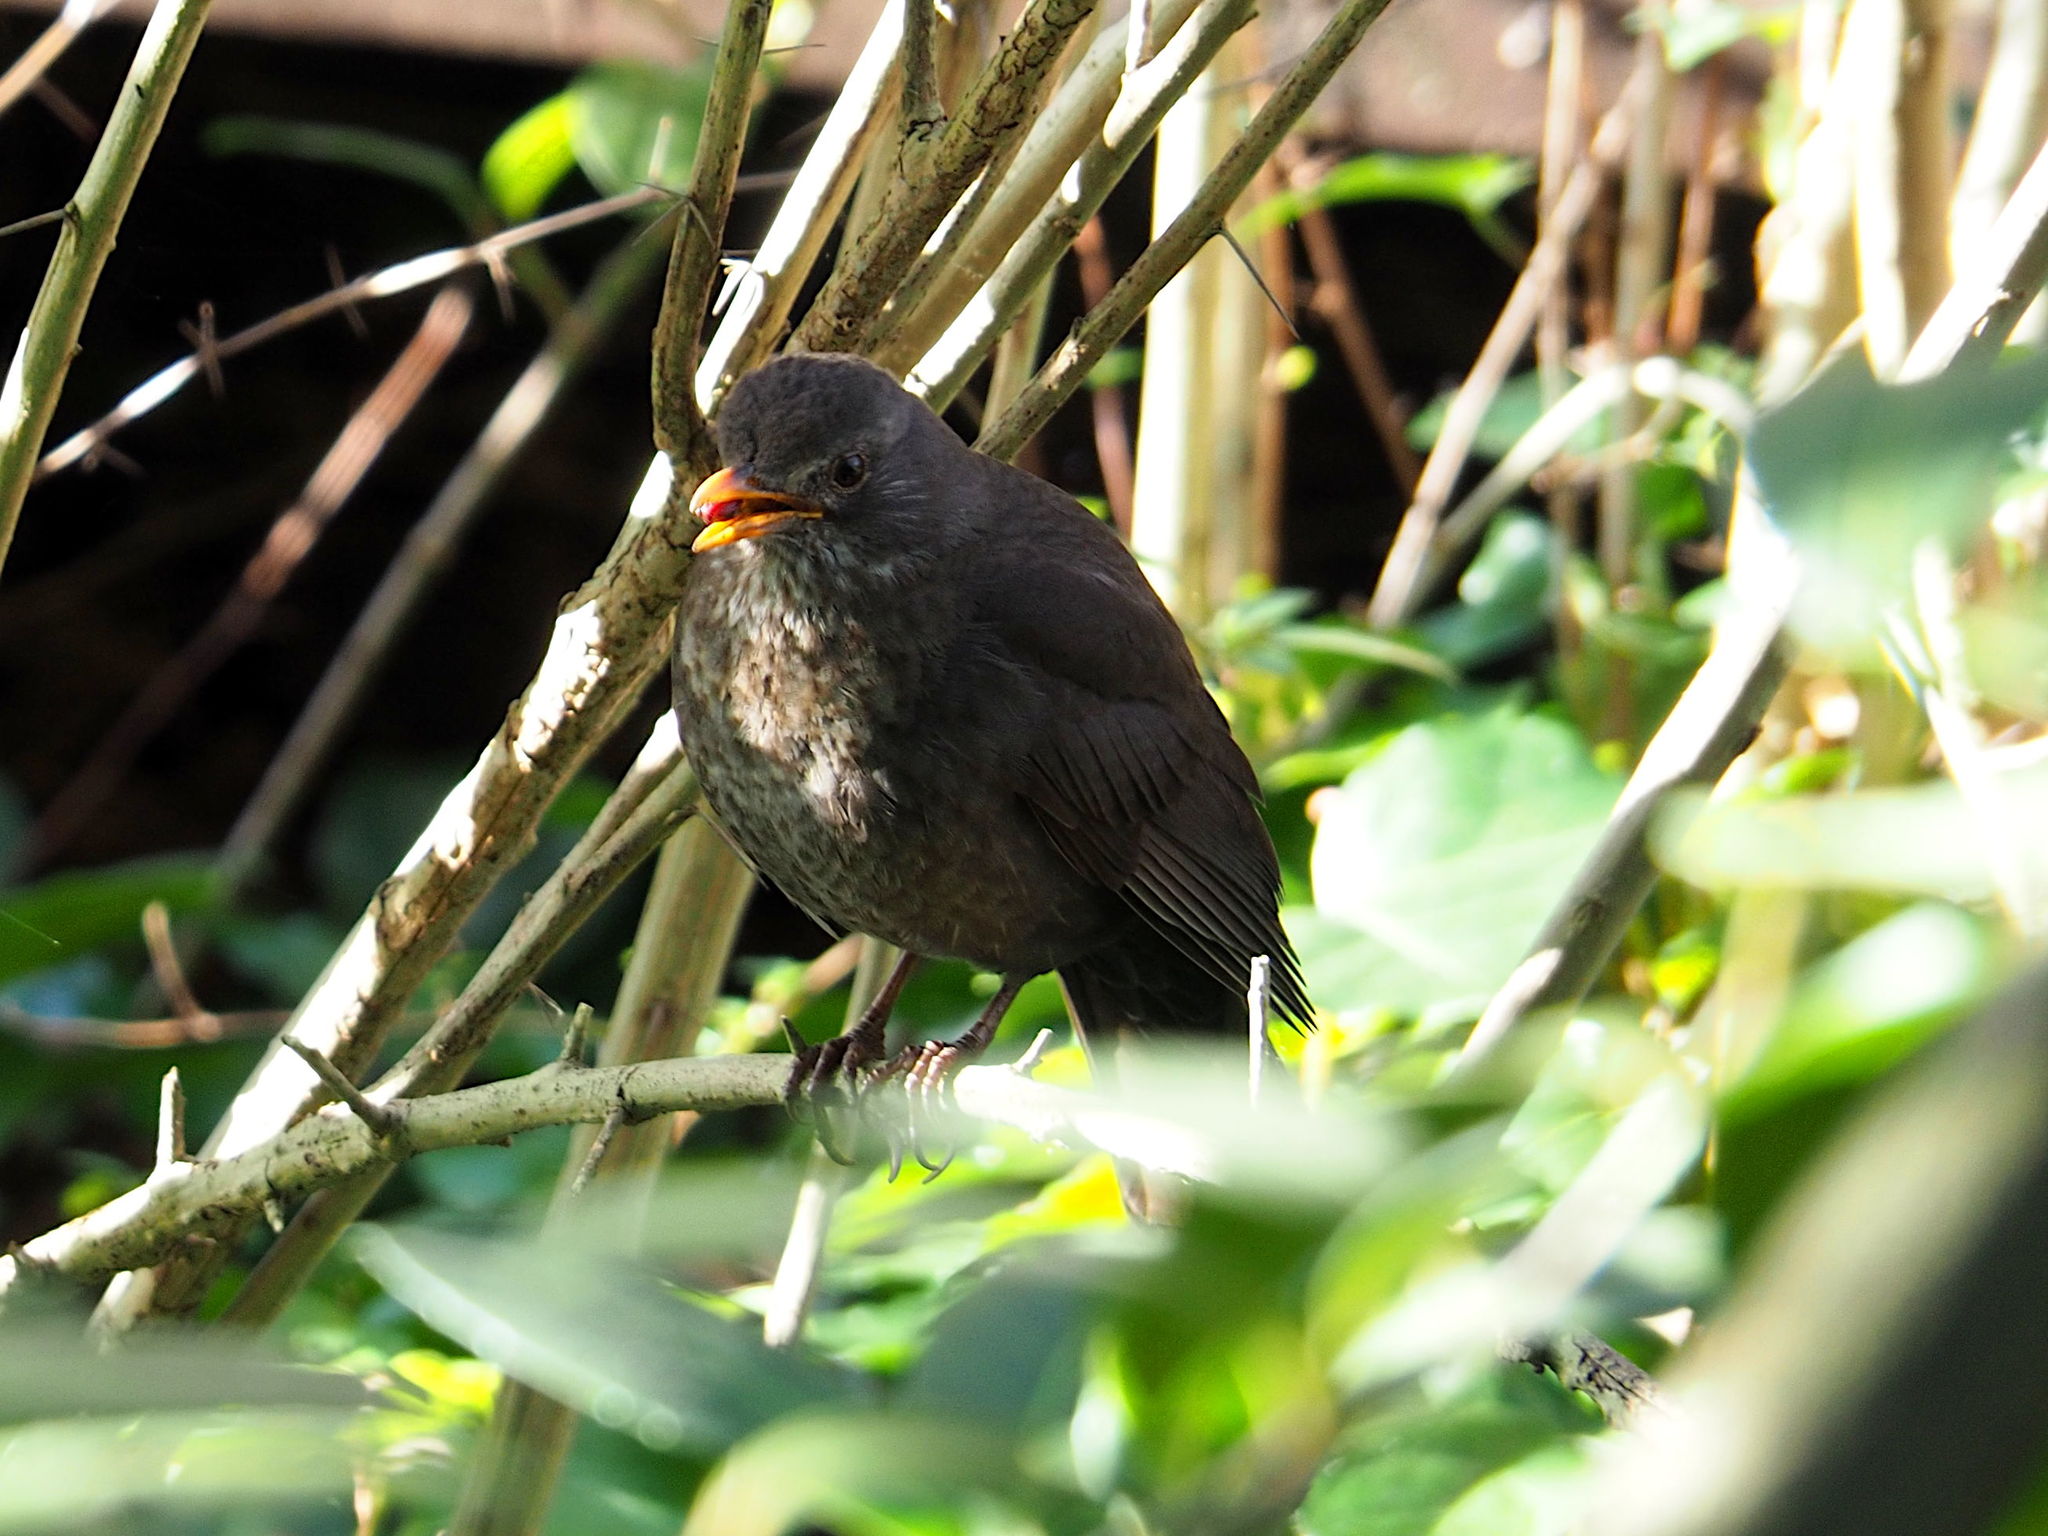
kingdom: Animalia
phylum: Chordata
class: Aves
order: Passeriformes
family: Turdidae
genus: Turdus
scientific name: Turdus merula
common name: Common blackbird
